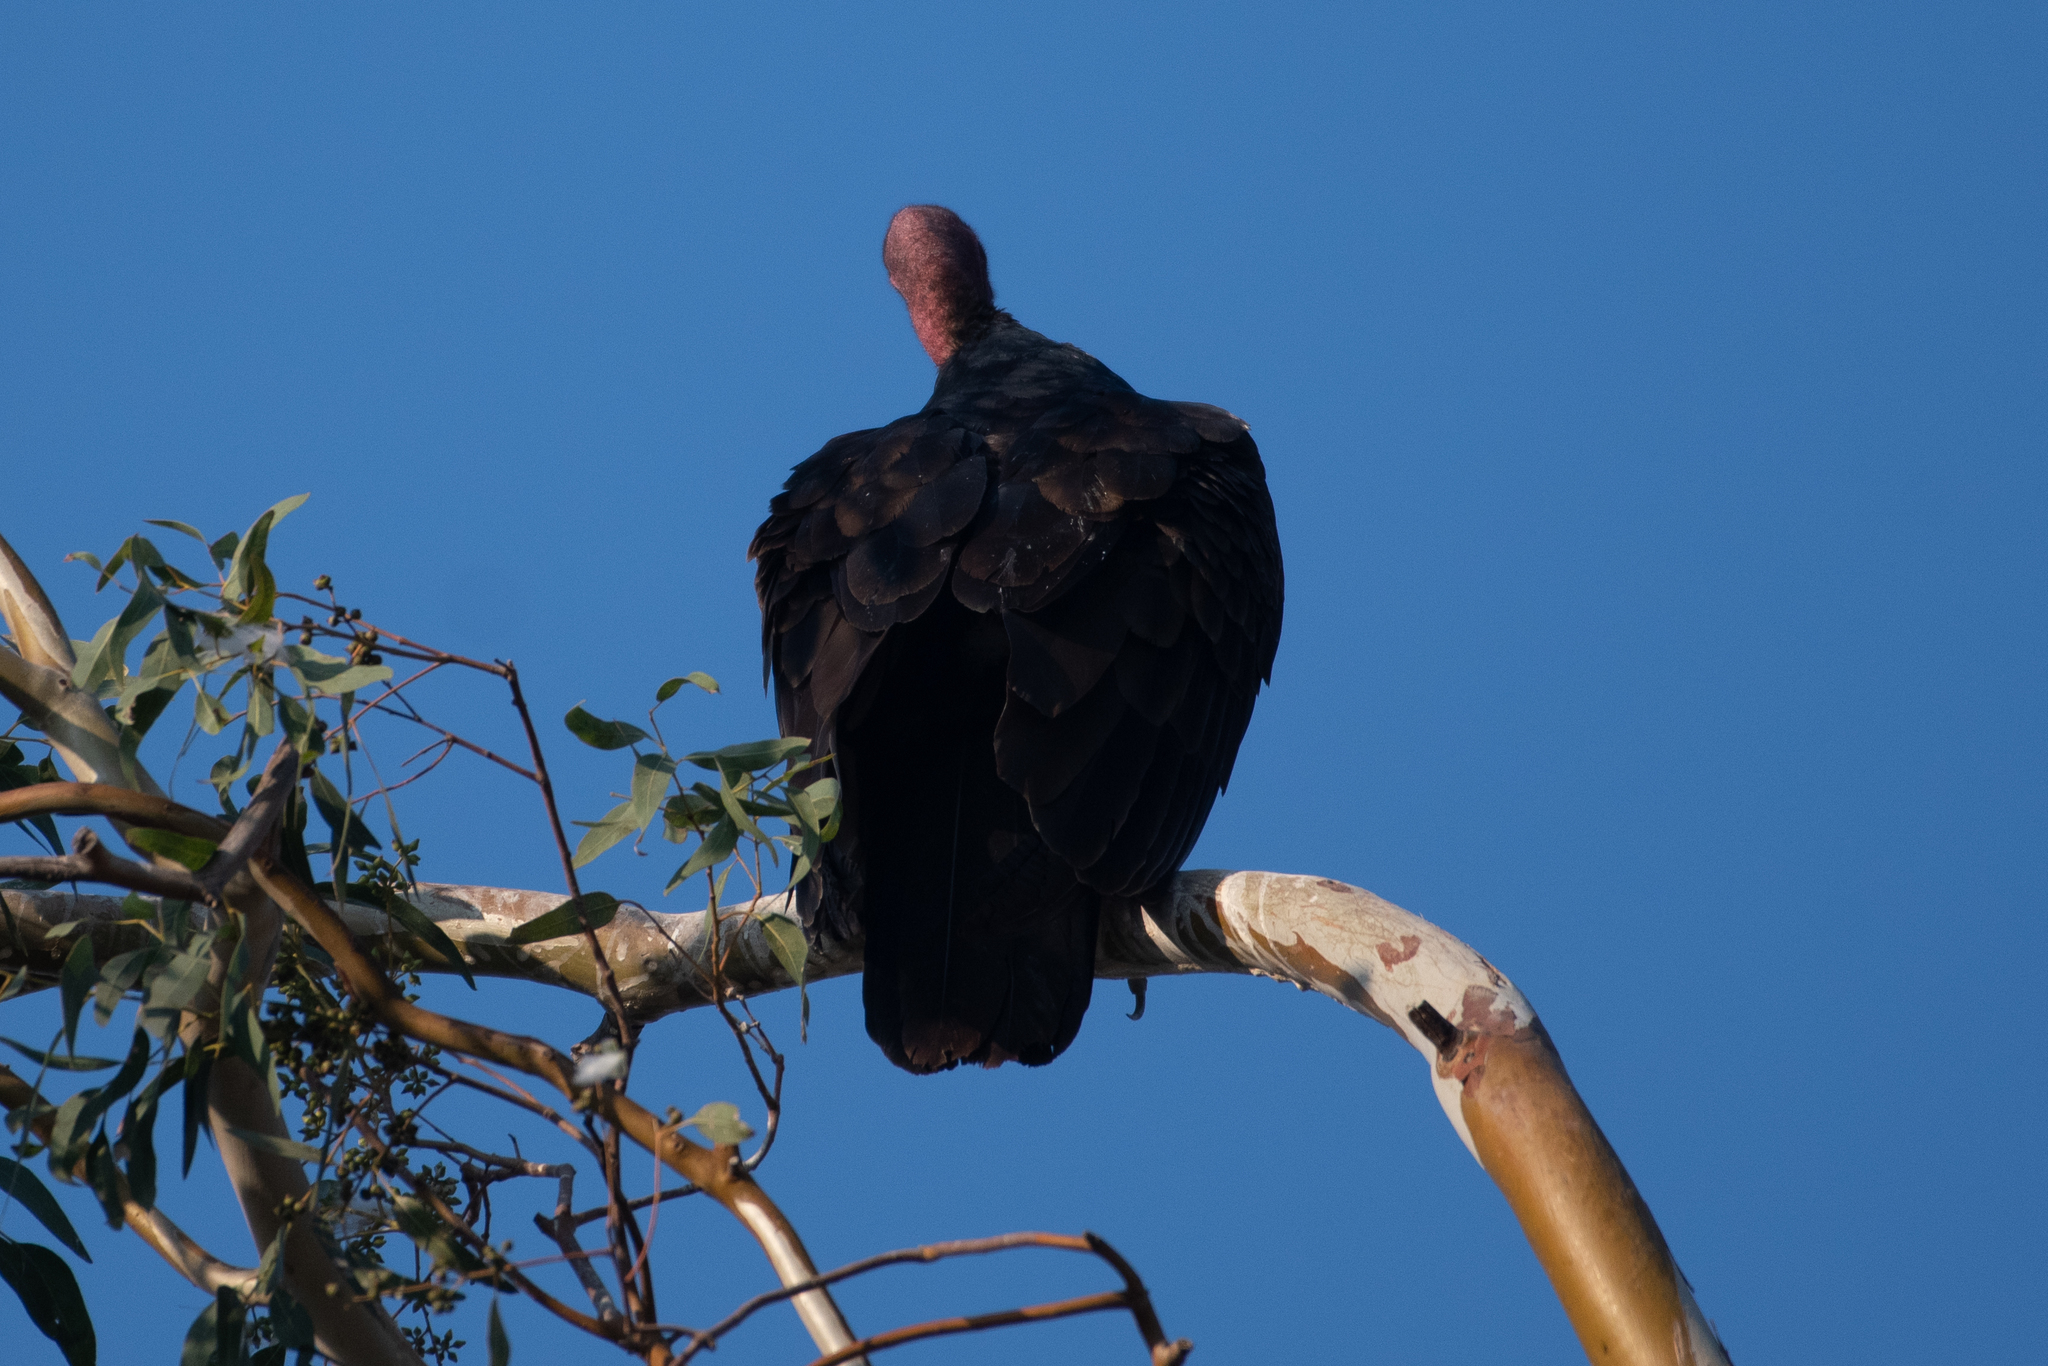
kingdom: Animalia
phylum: Chordata
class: Aves
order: Accipitriformes
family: Cathartidae
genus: Cathartes
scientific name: Cathartes aura
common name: Turkey vulture
